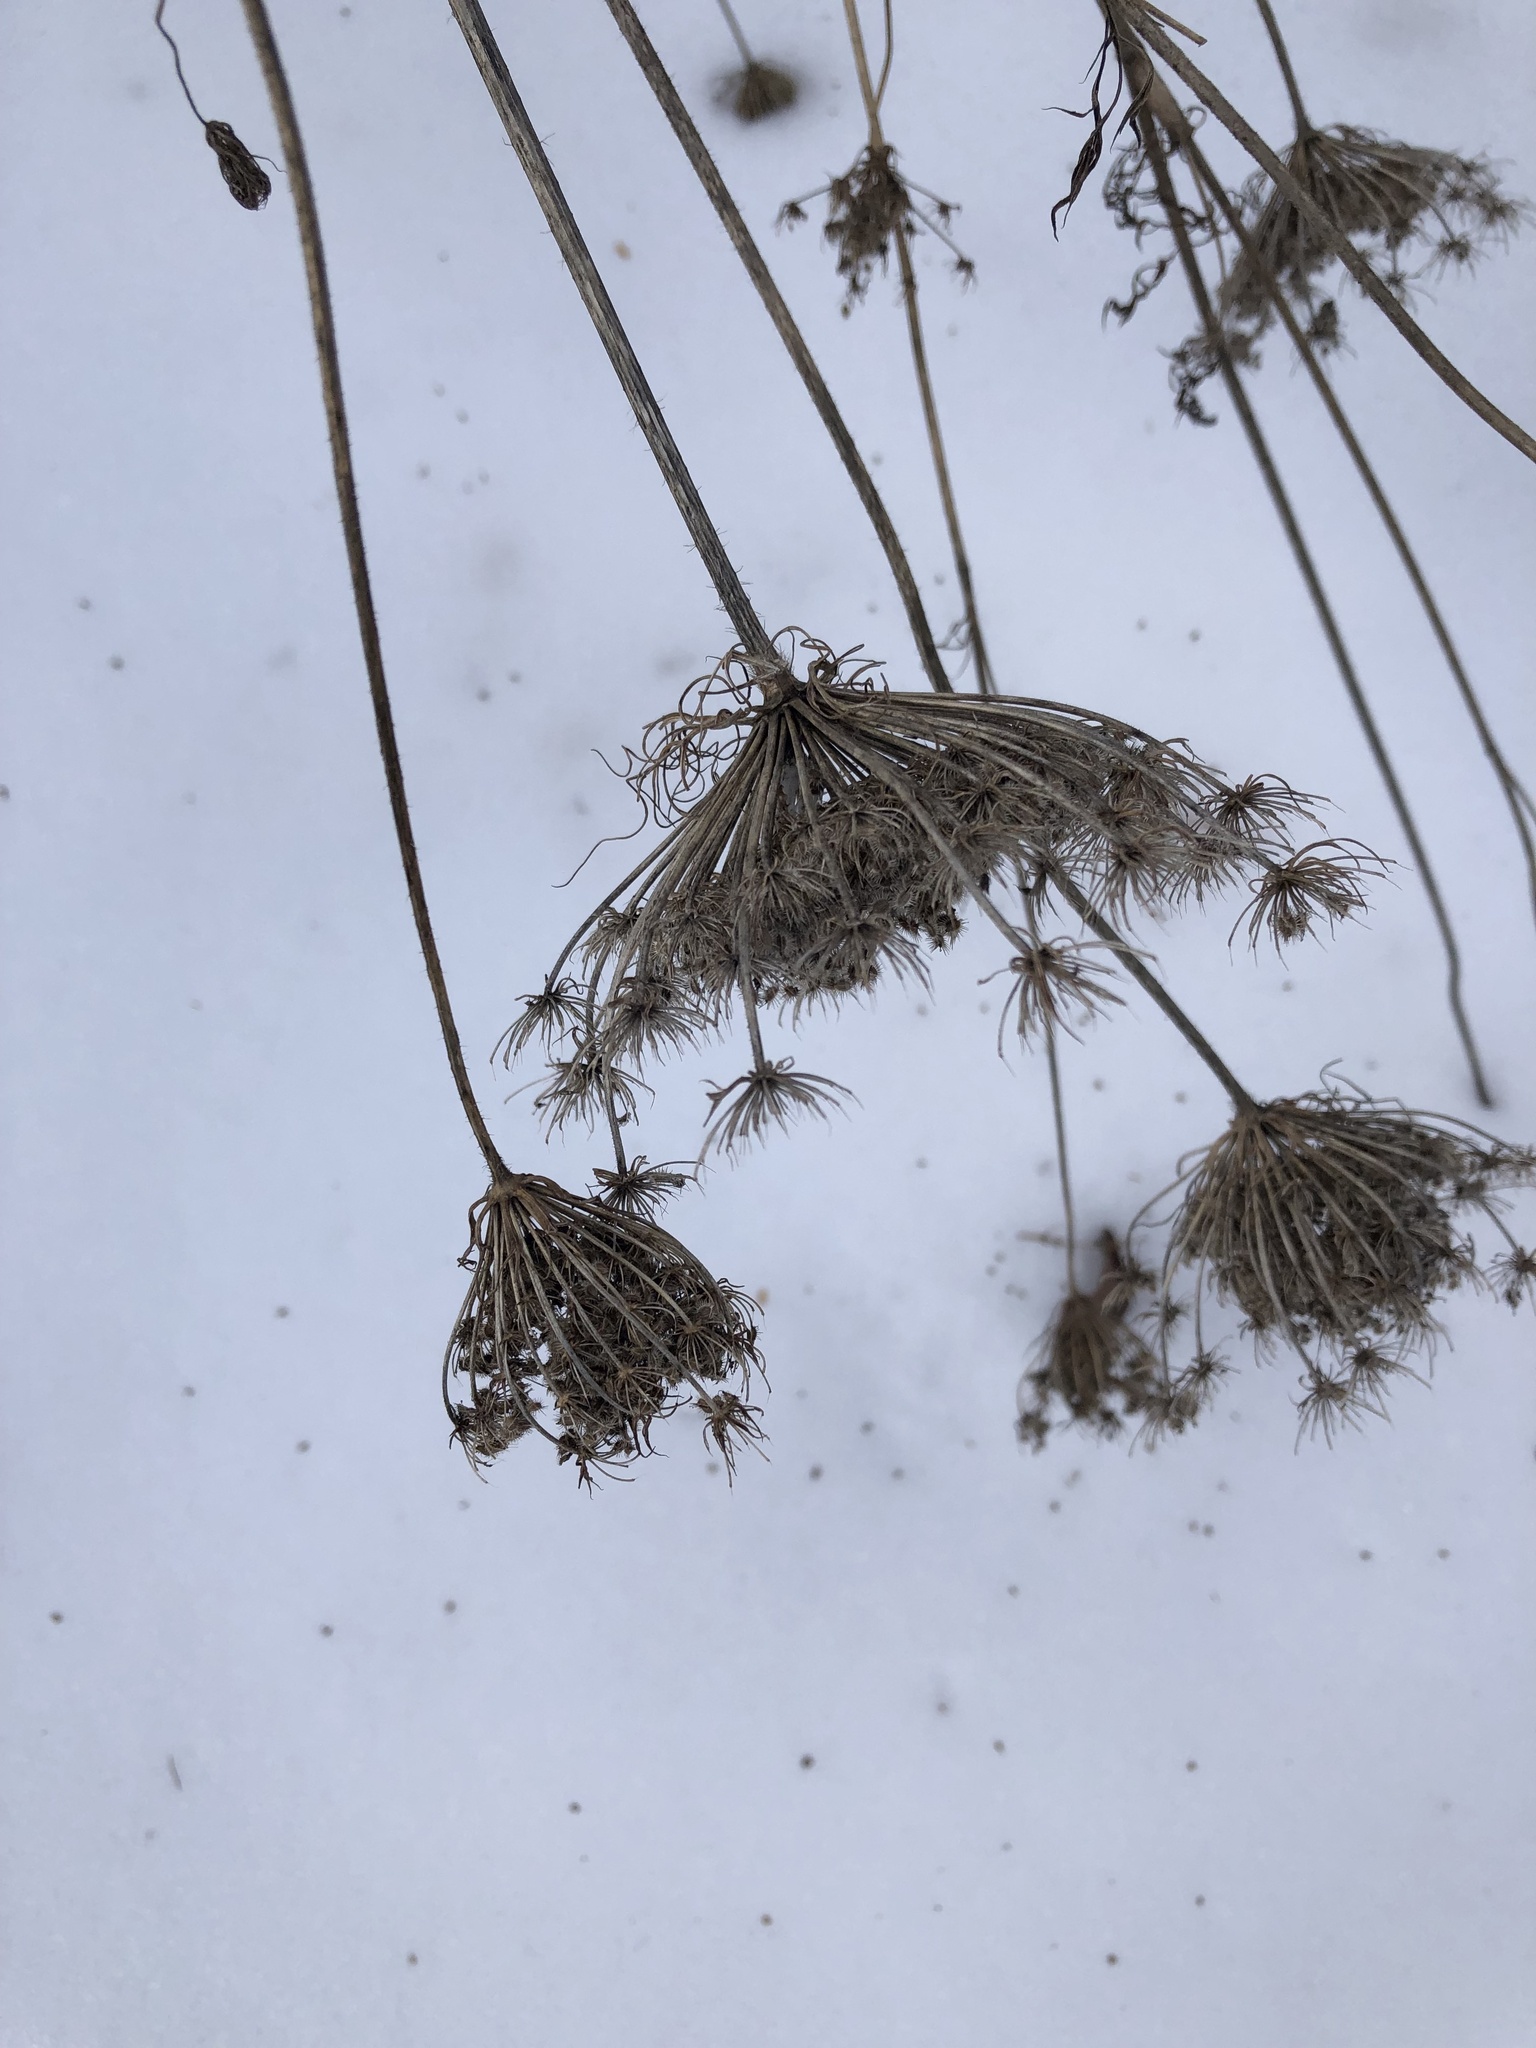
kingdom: Plantae
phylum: Tracheophyta
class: Magnoliopsida
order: Apiales
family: Apiaceae
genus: Daucus
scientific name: Daucus carota
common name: Wild carrot
